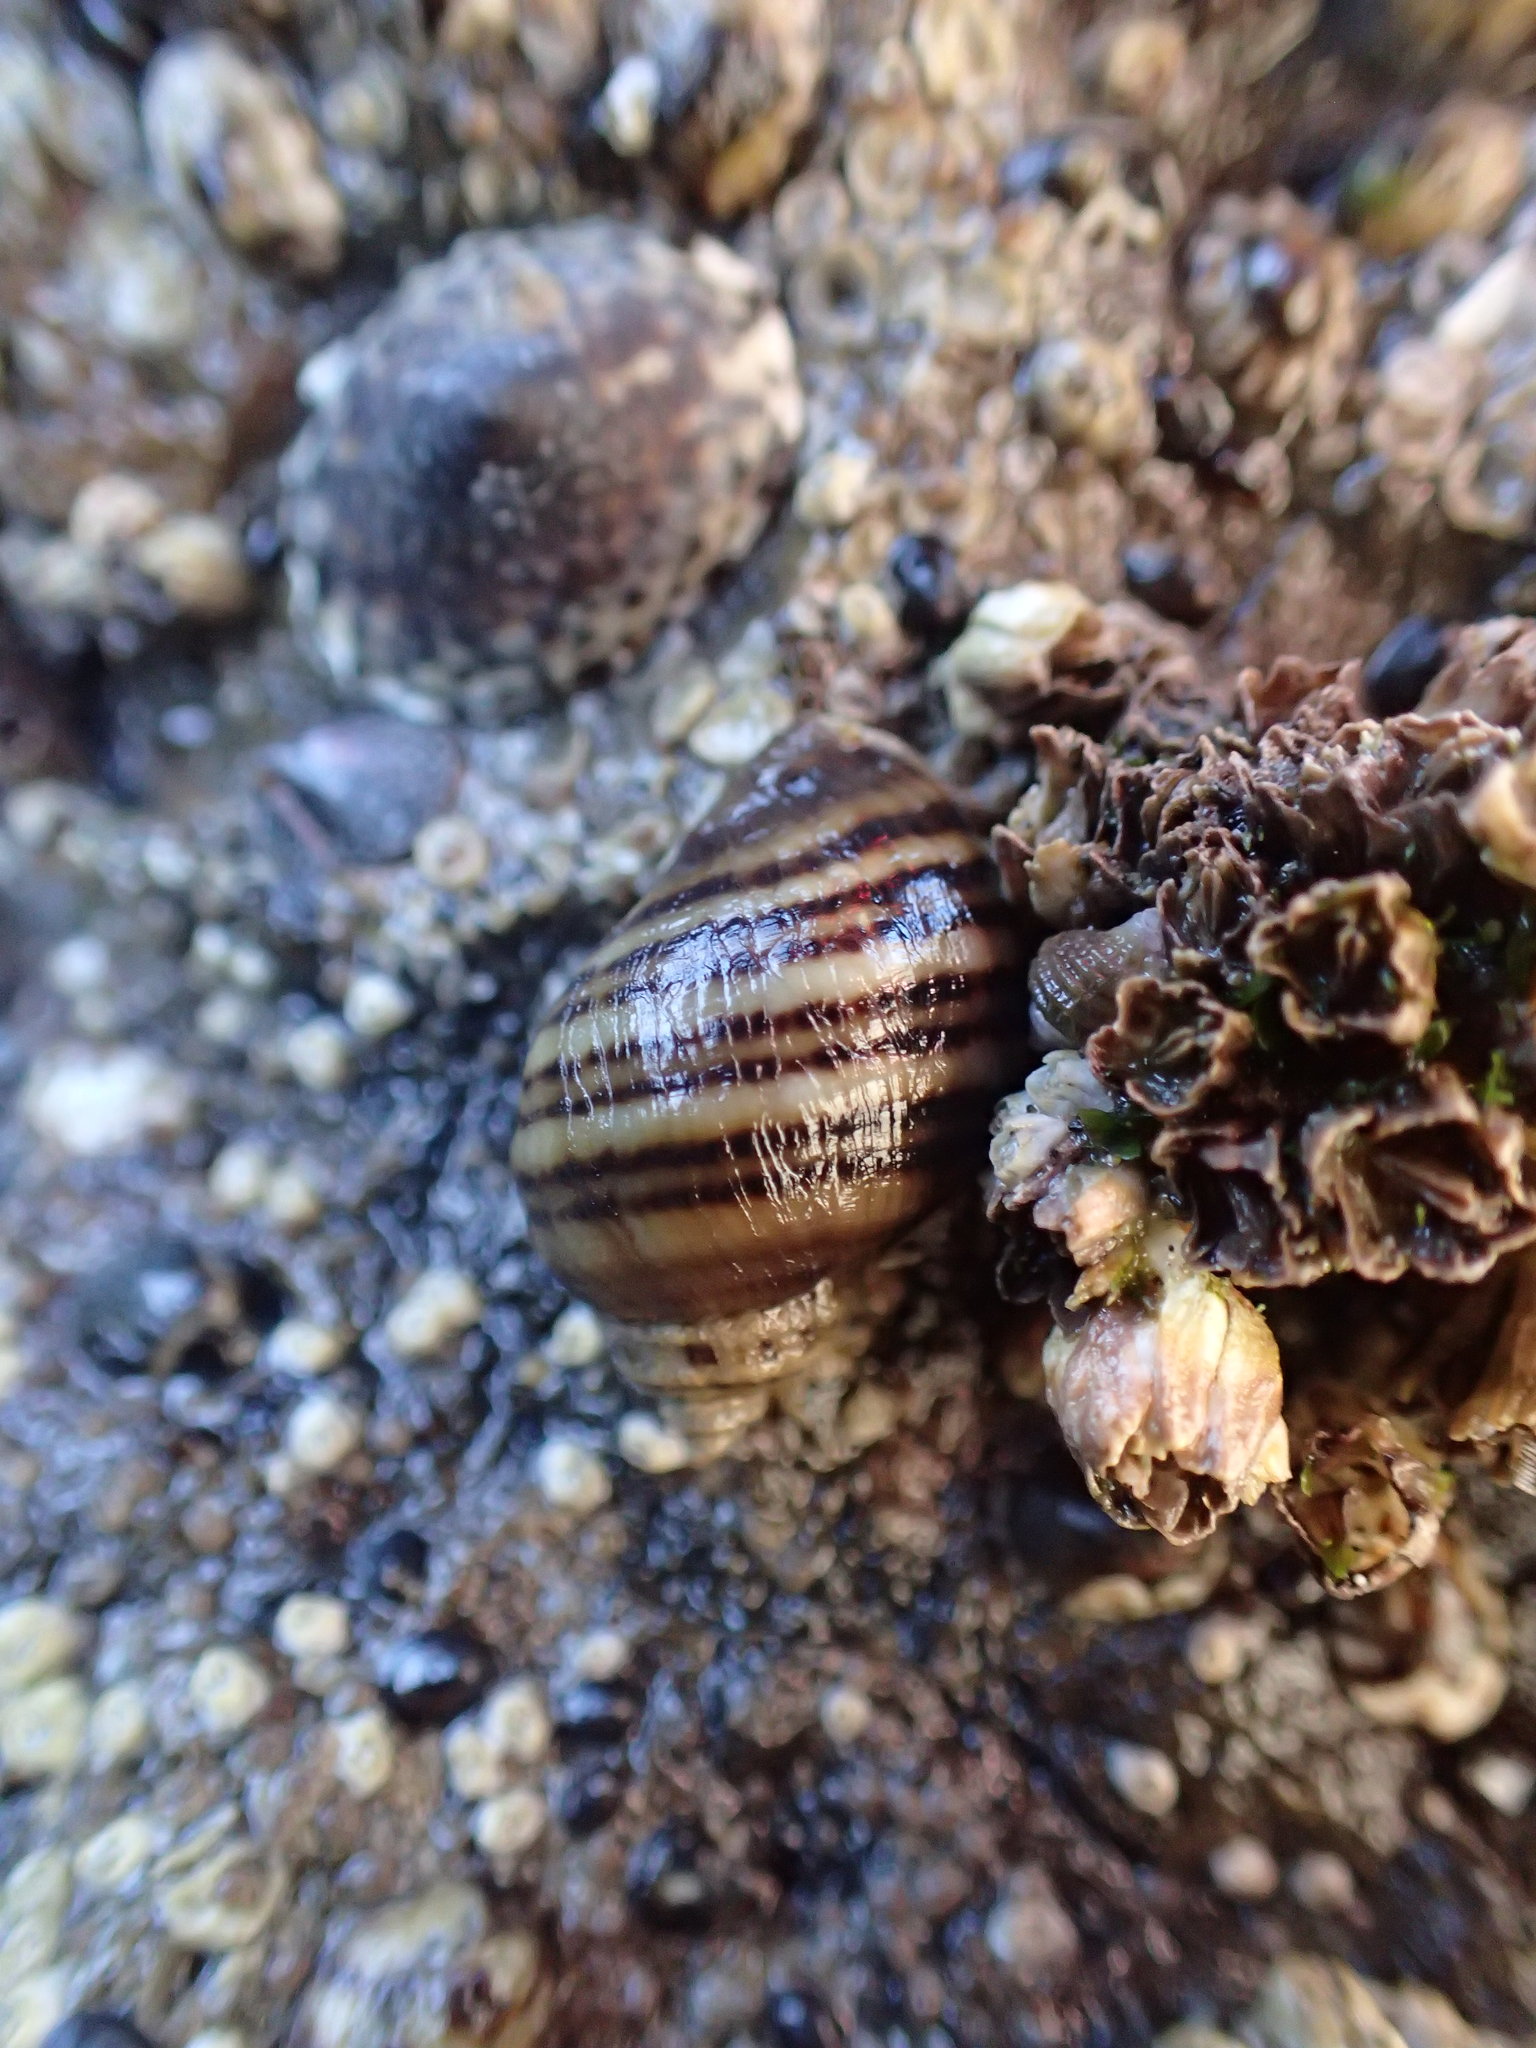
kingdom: Animalia
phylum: Mollusca
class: Gastropoda
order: Neogastropoda
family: Muricidae
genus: Nucella
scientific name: Nucella ostrina
